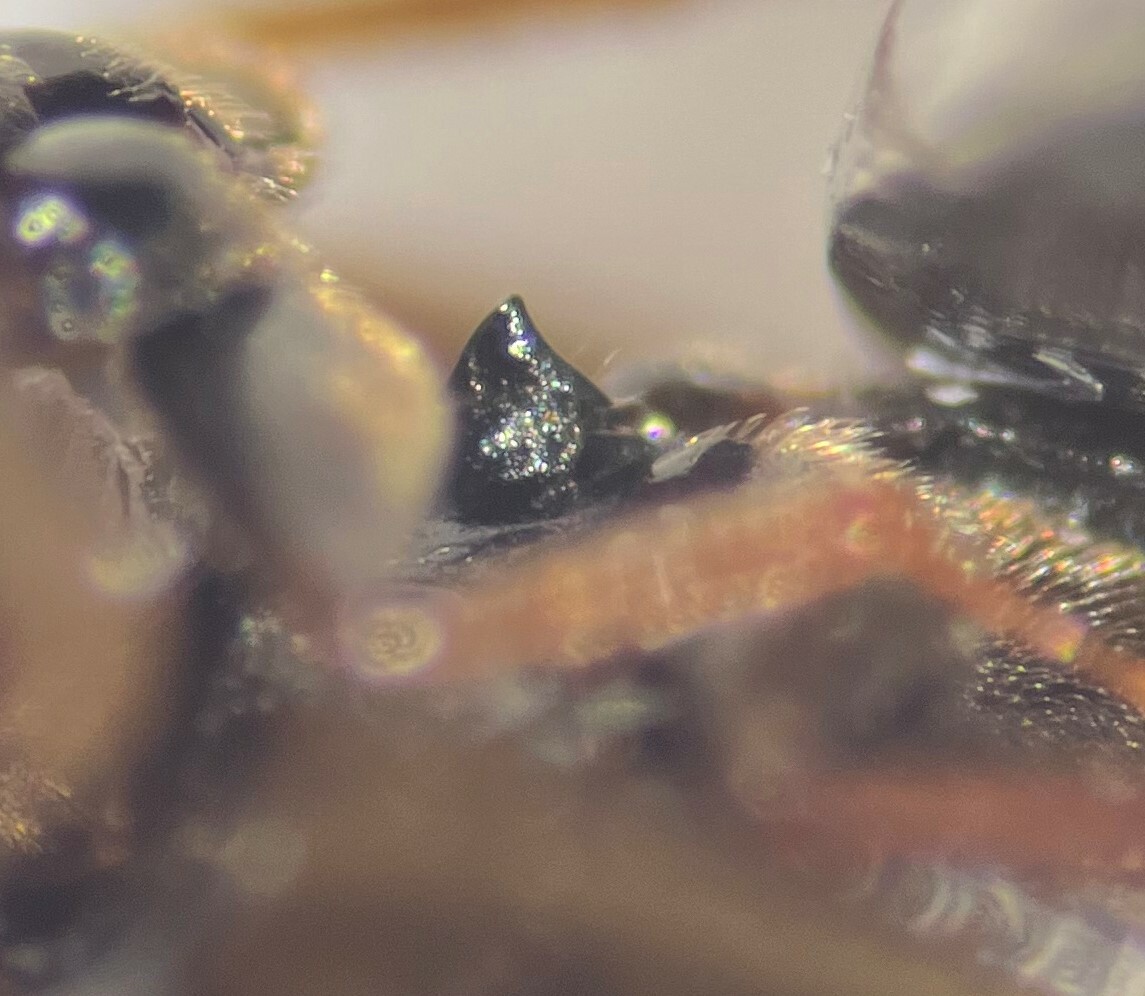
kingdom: Animalia
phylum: Arthropoda
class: Insecta
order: Coleoptera
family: Hydrophilidae
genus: Enochrus
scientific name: Enochrus cristatus
